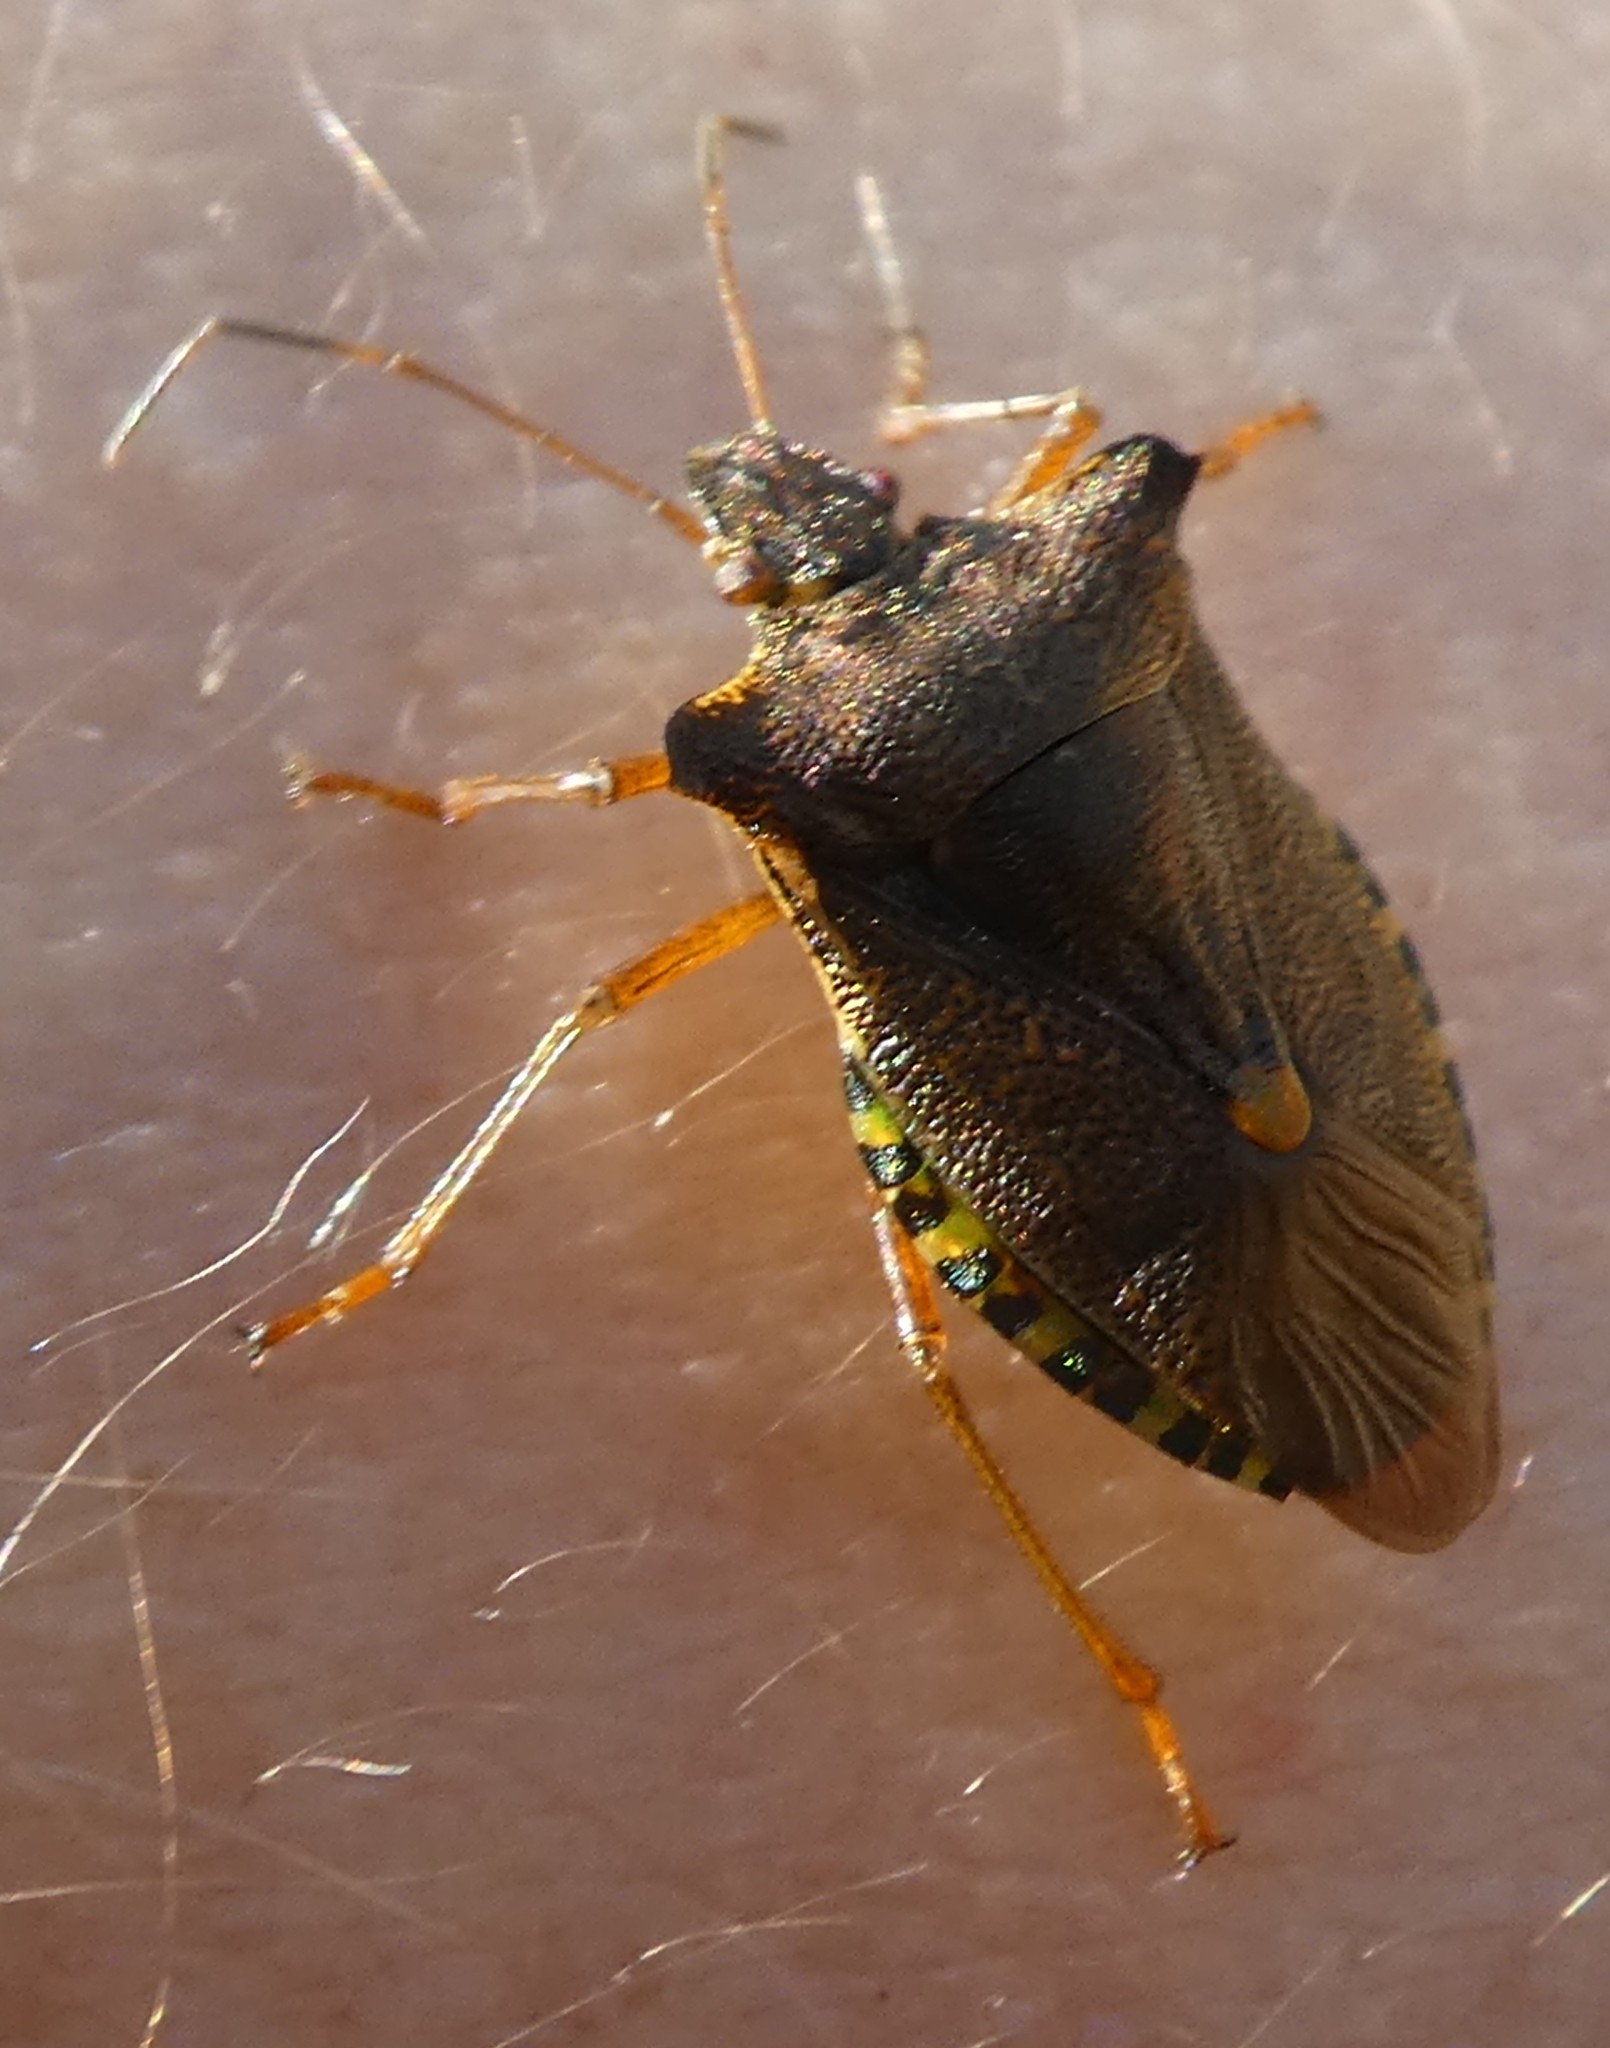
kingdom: Animalia
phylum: Arthropoda
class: Insecta
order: Hemiptera
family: Pentatomidae
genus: Pentatoma
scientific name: Pentatoma rufipes
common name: Forest bug
